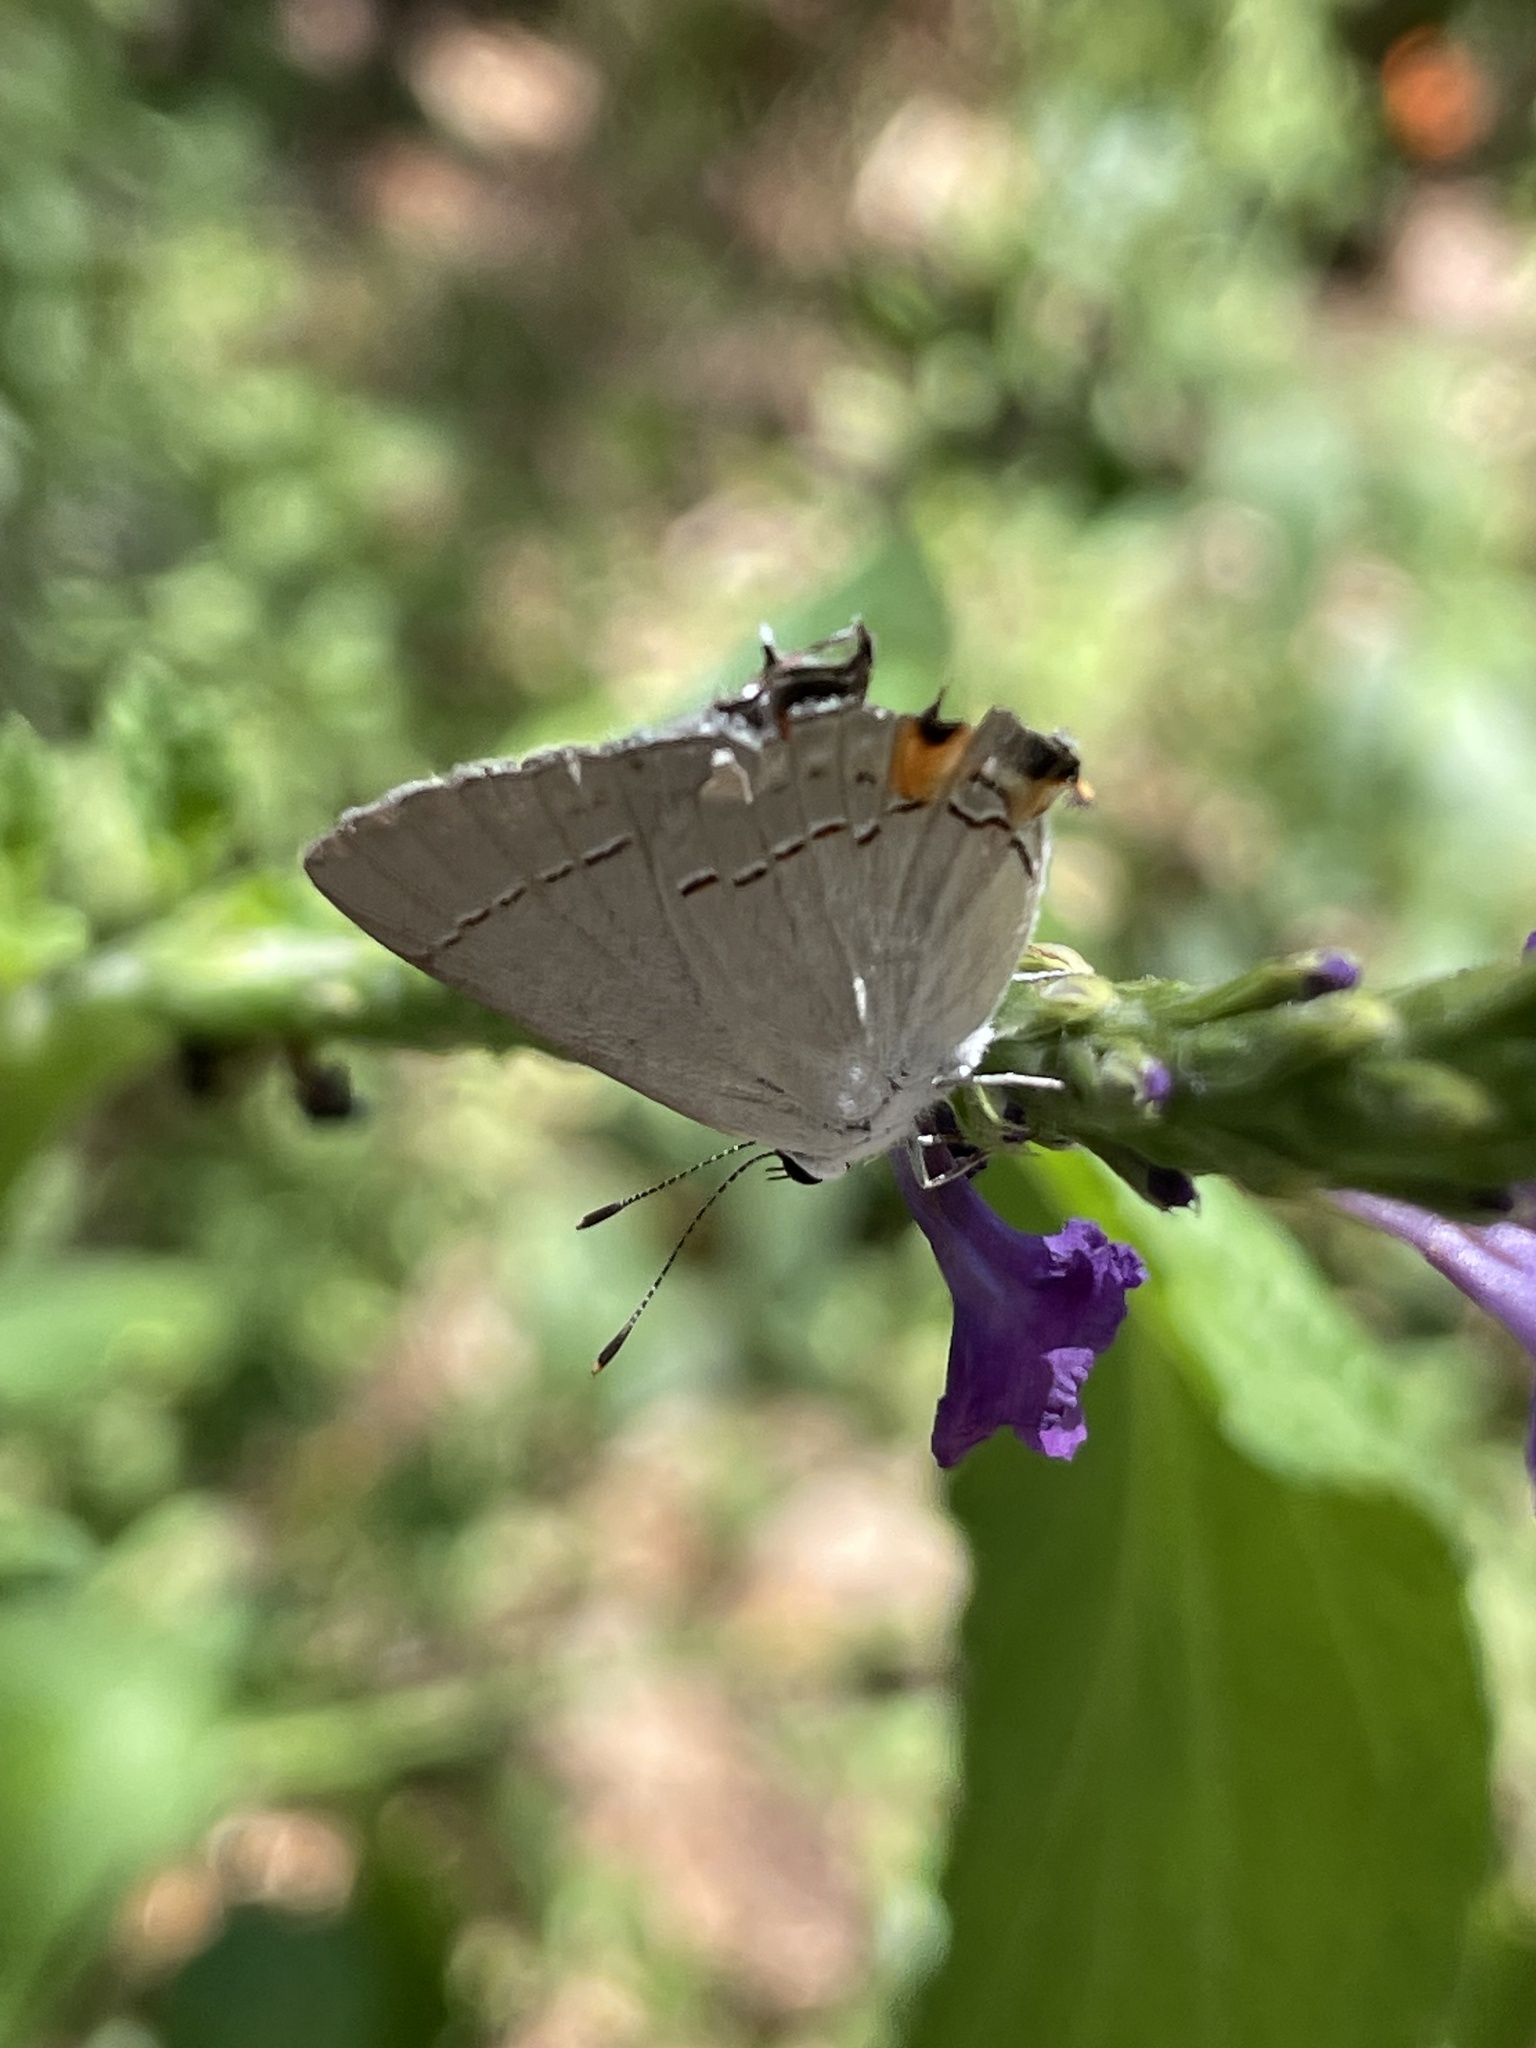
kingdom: Animalia
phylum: Arthropoda
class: Insecta
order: Lepidoptera
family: Lycaenidae
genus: Strymon
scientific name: Strymon melinus
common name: Gray hairstreak
